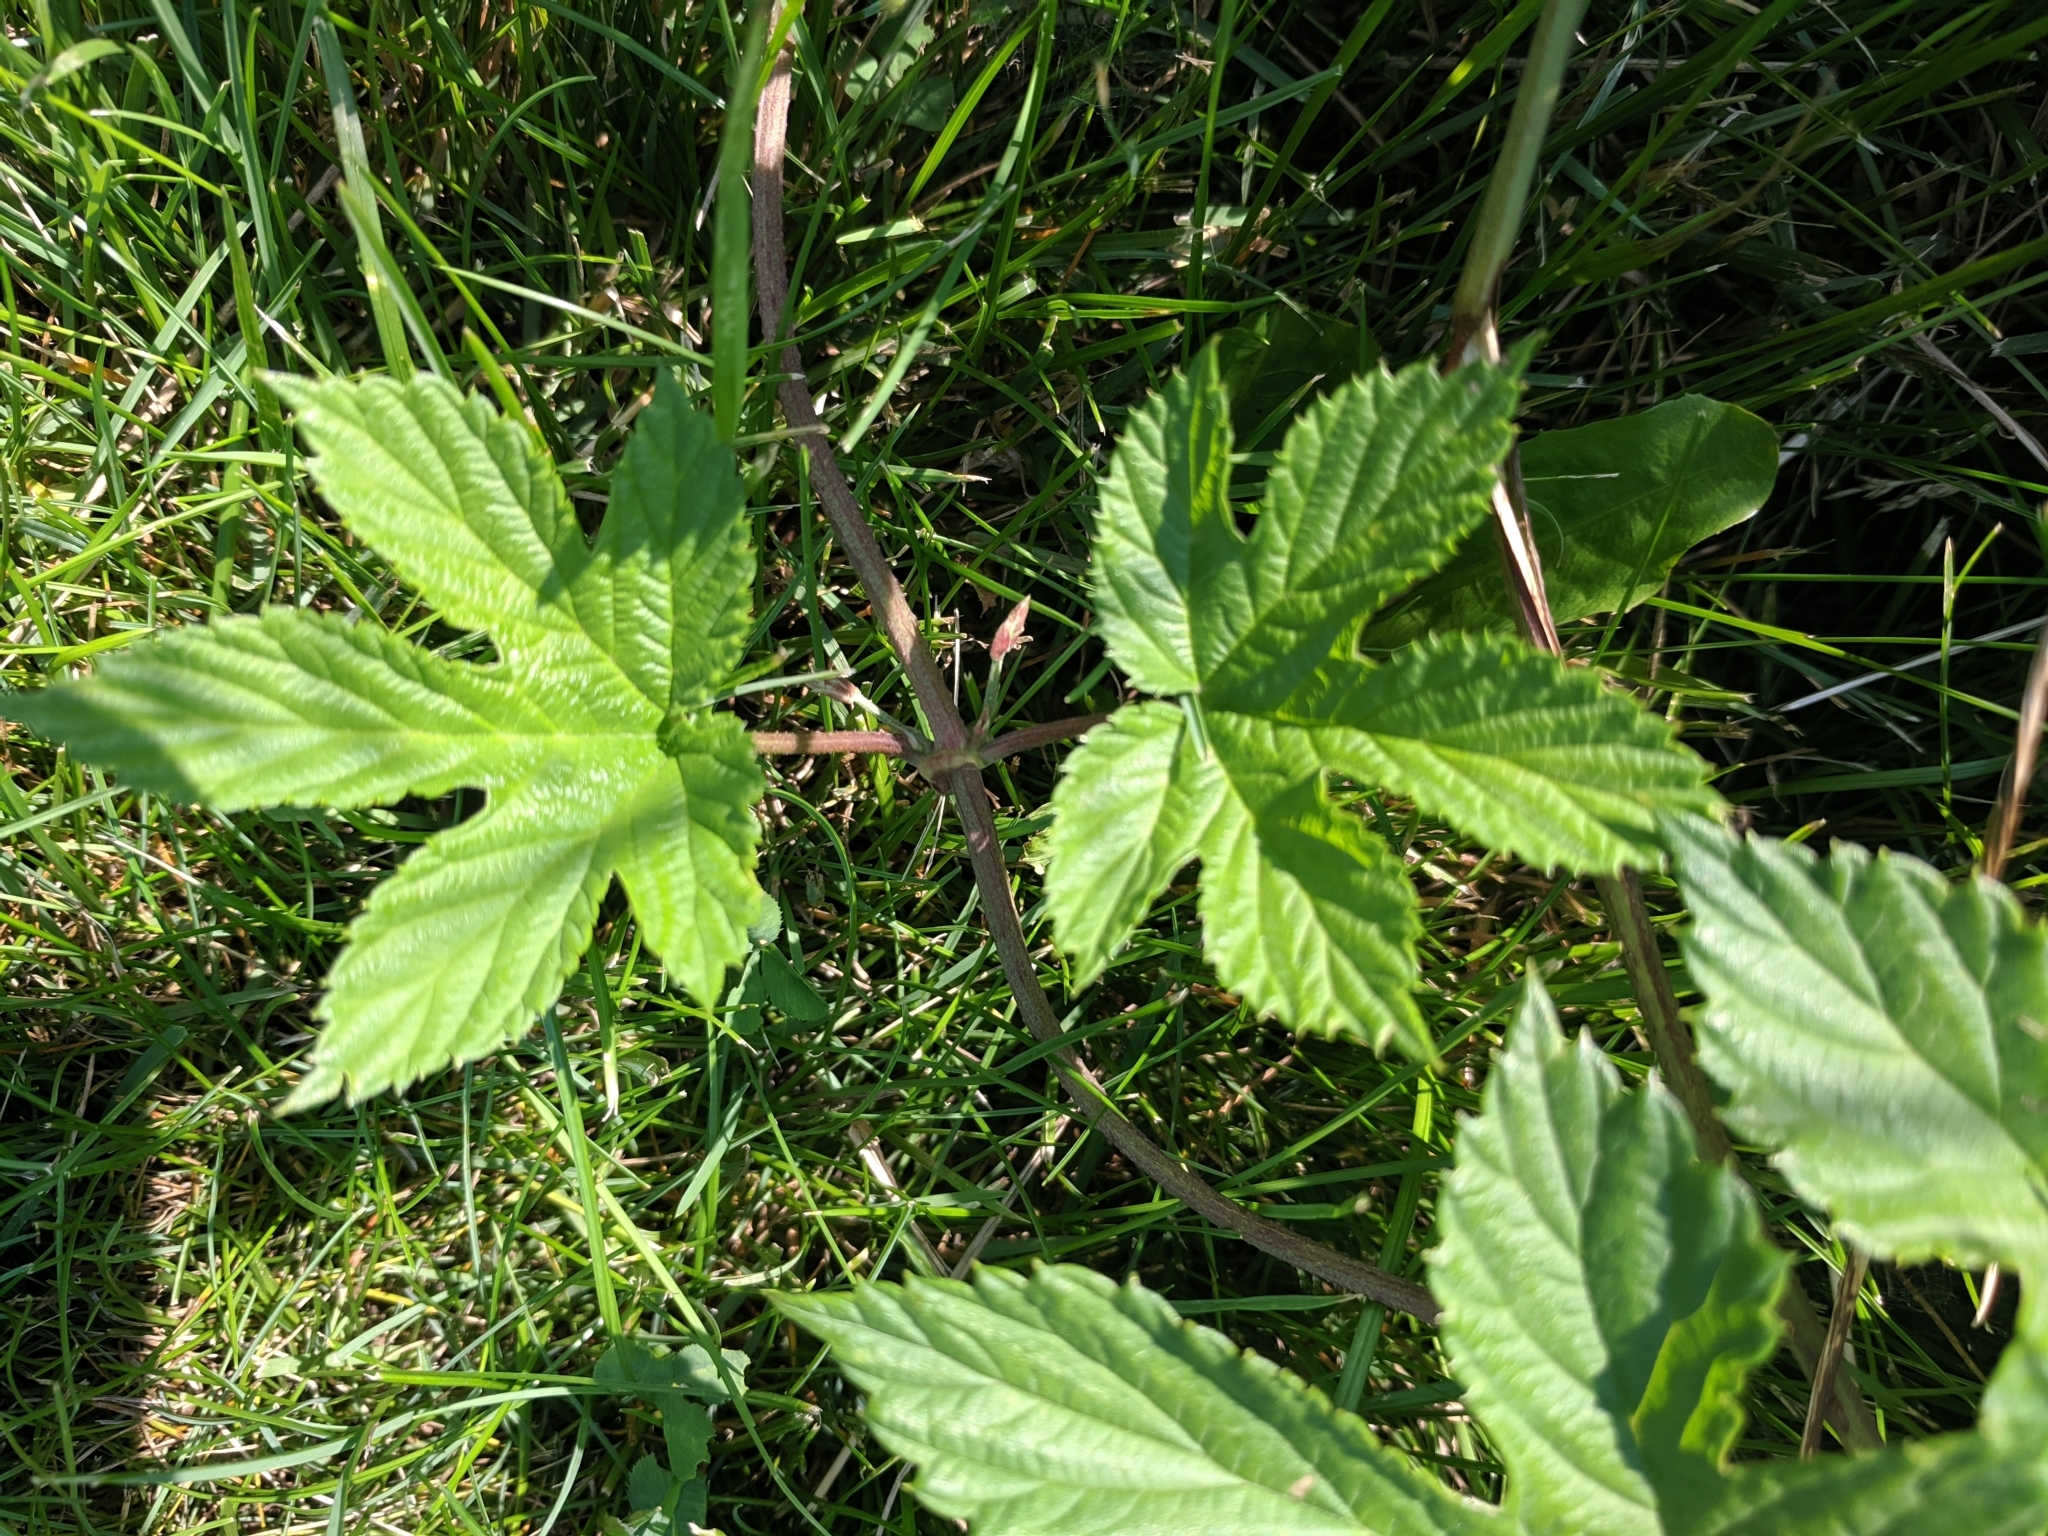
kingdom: Plantae
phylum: Tracheophyta
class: Magnoliopsida
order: Rosales
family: Cannabaceae
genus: Humulus
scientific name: Humulus lupulus
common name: Hop
